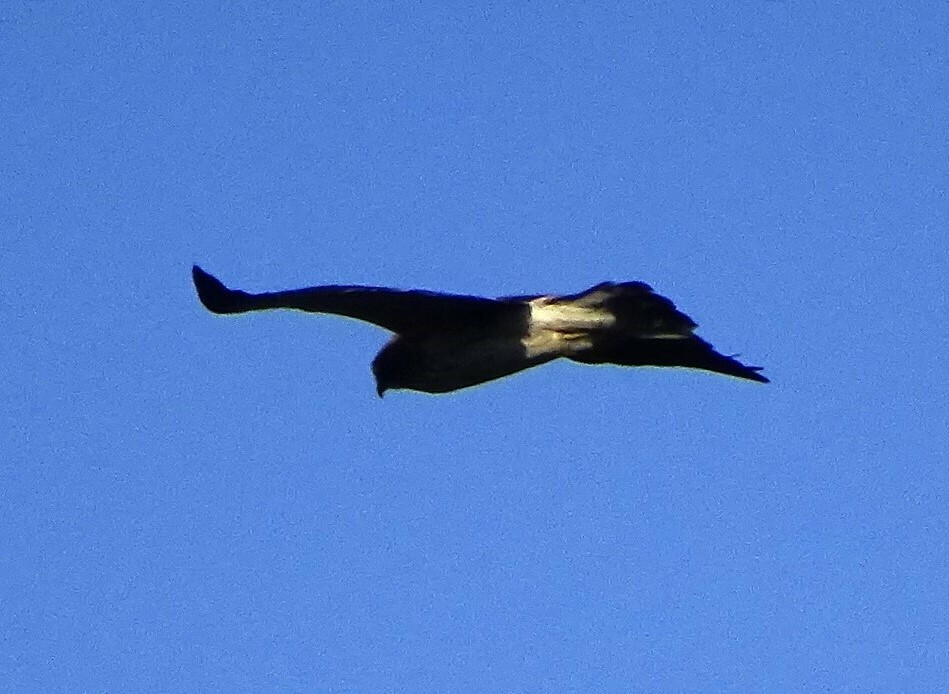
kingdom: Animalia
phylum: Chordata
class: Aves
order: Accipitriformes
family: Accipitridae
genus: Hieraaetus
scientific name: Hieraaetus pennatus
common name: Booted eagle
